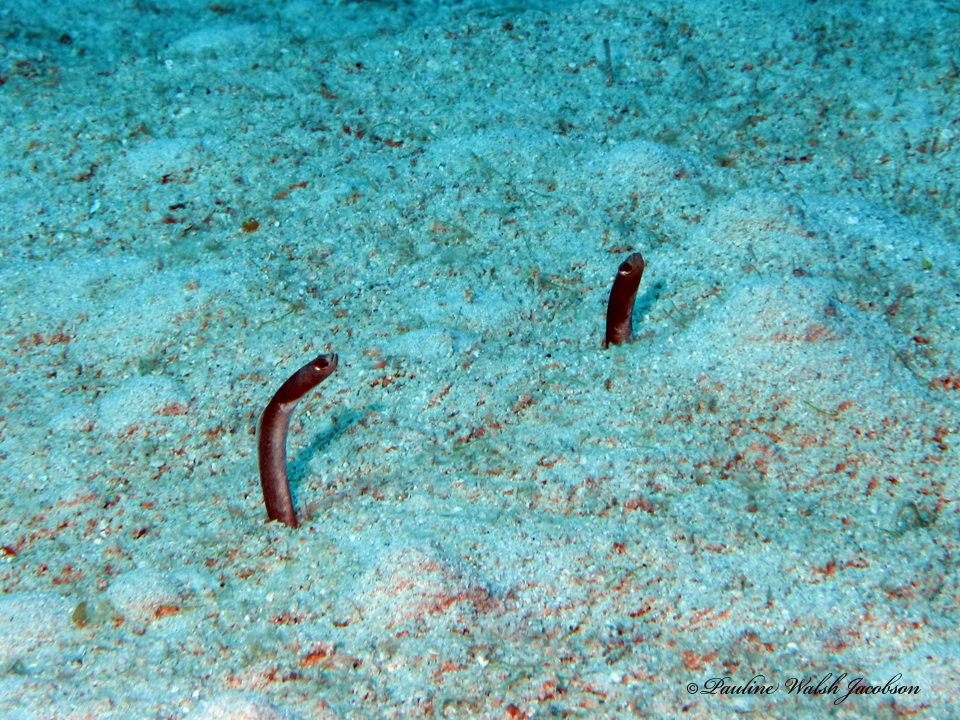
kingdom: Animalia
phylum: Chordata
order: Anguilliformes
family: Congridae
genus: Heteroconger
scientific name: Heteroconger longissimus
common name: Garden eel
